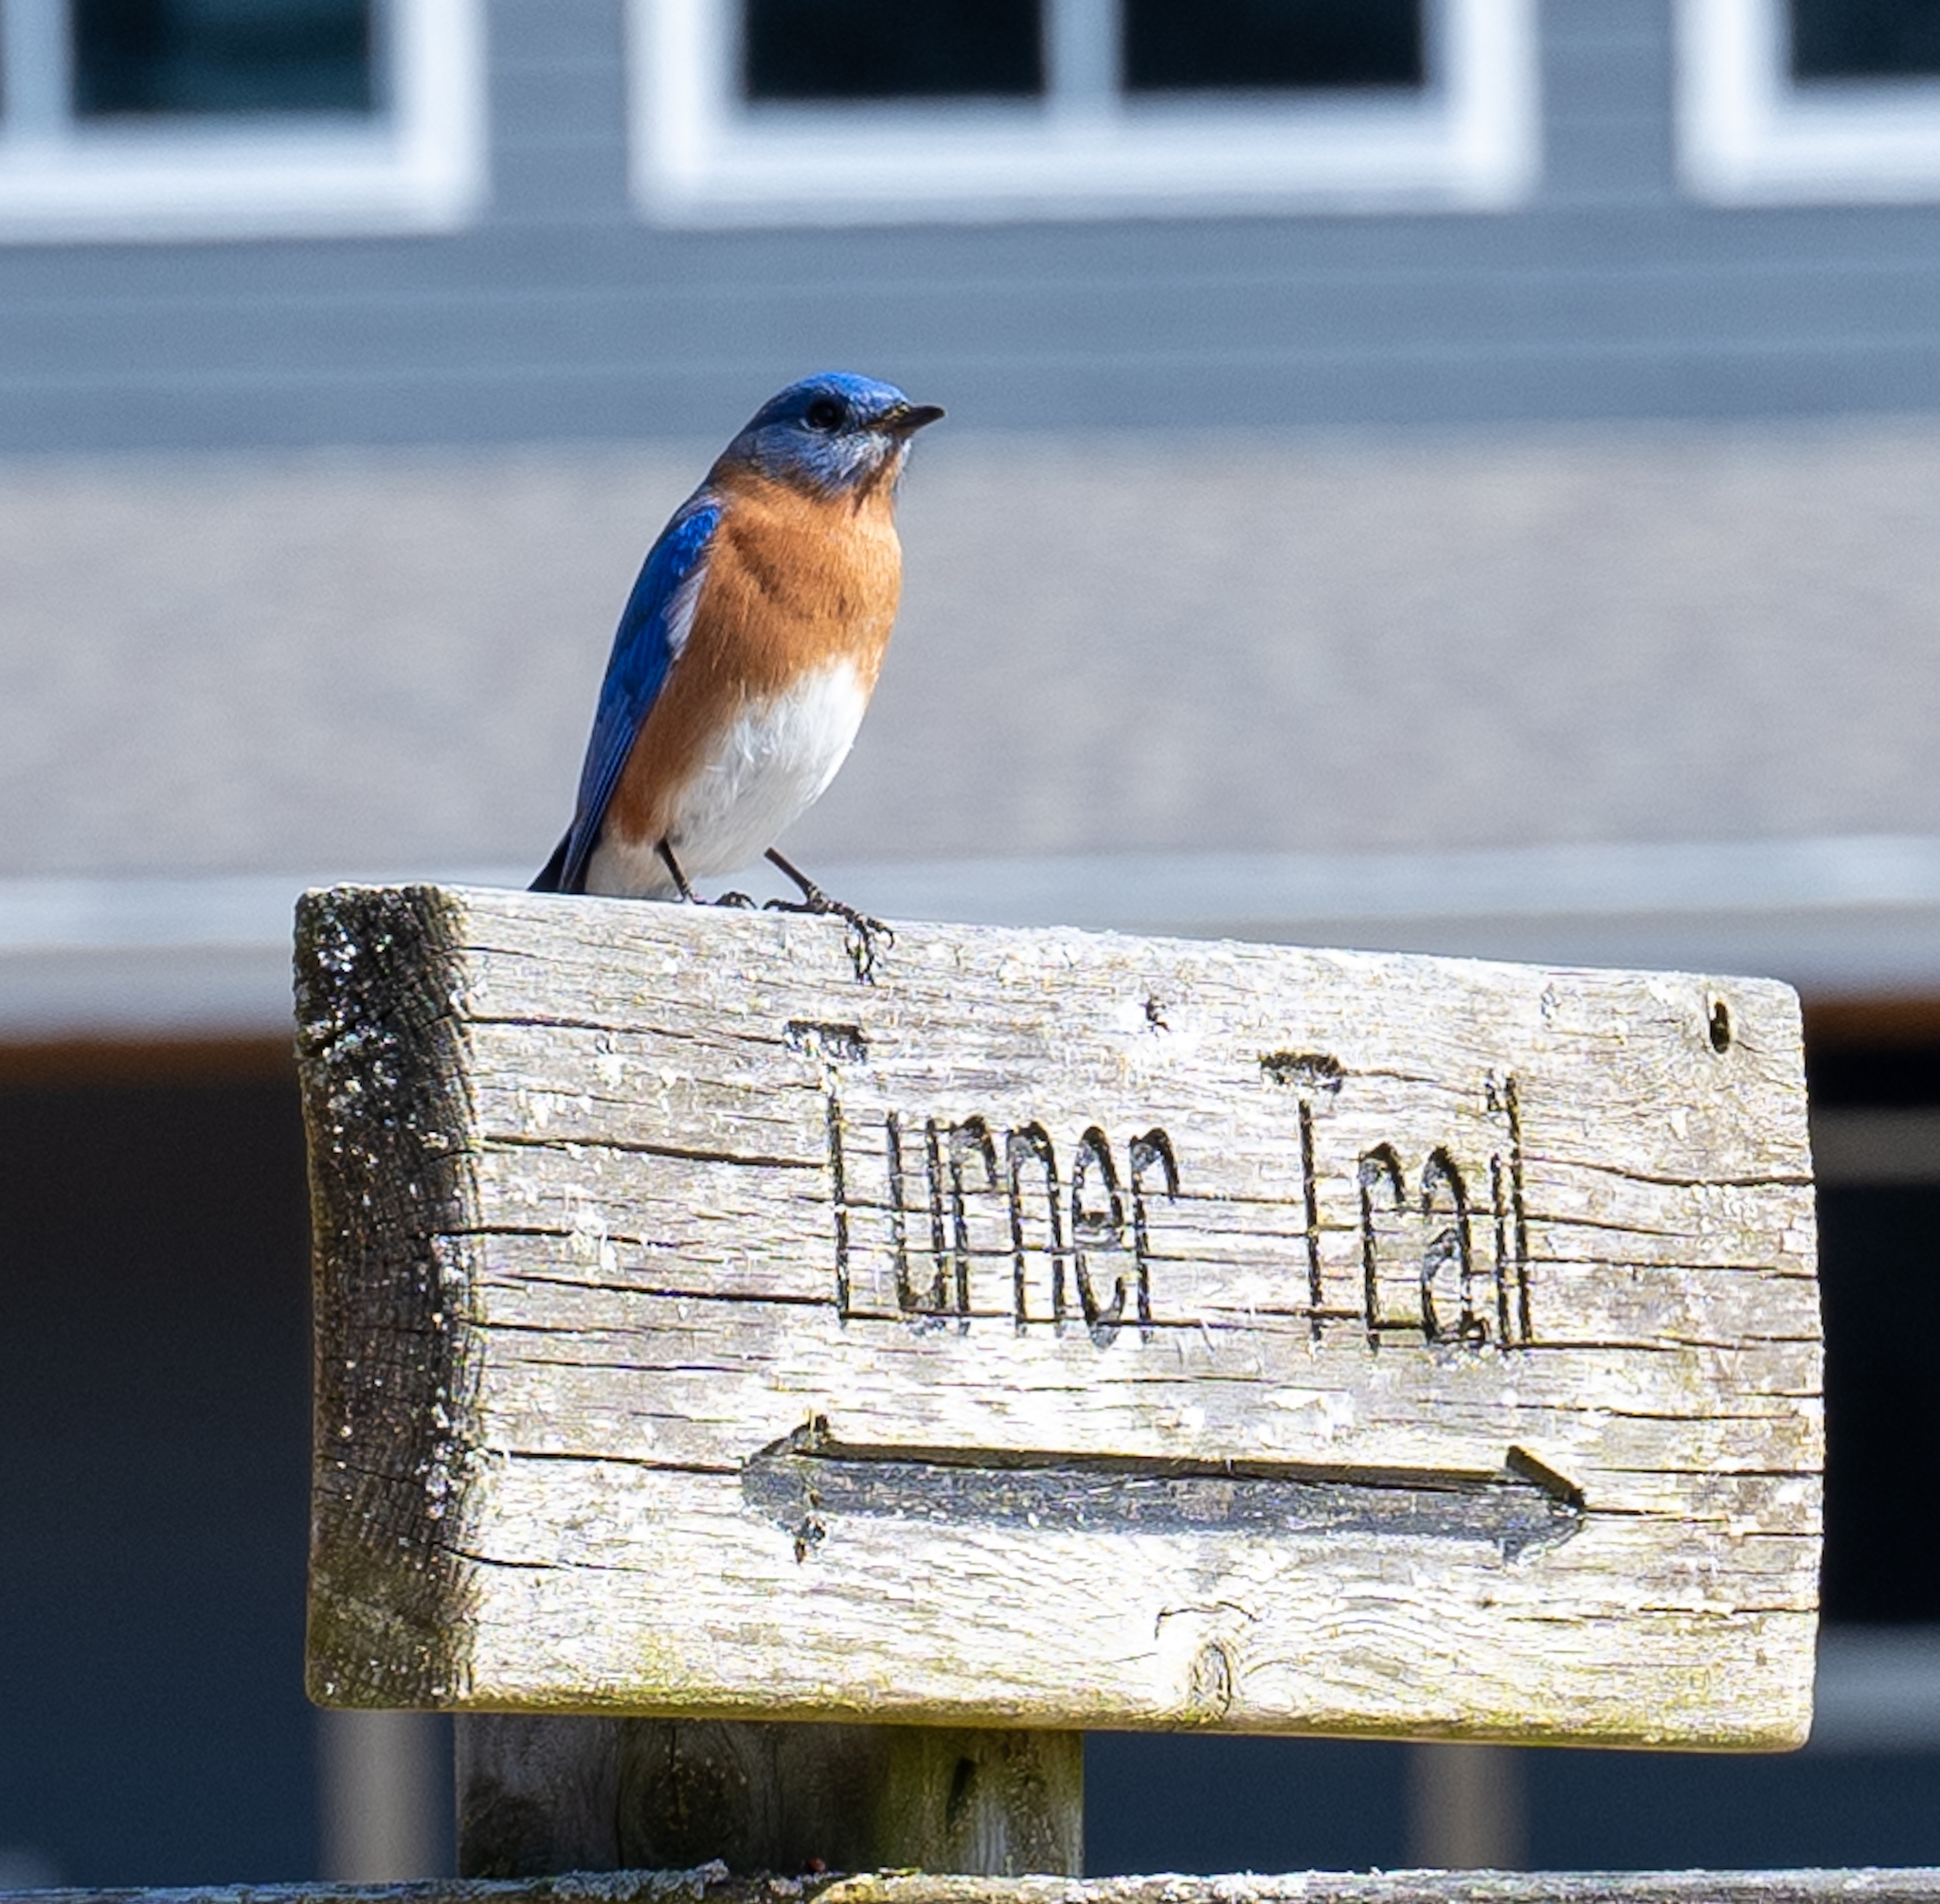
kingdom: Animalia
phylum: Chordata
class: Aves
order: Passeriformes
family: Turdidae
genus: Sialia
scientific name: Sialia sialis
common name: Eastern bluebird
